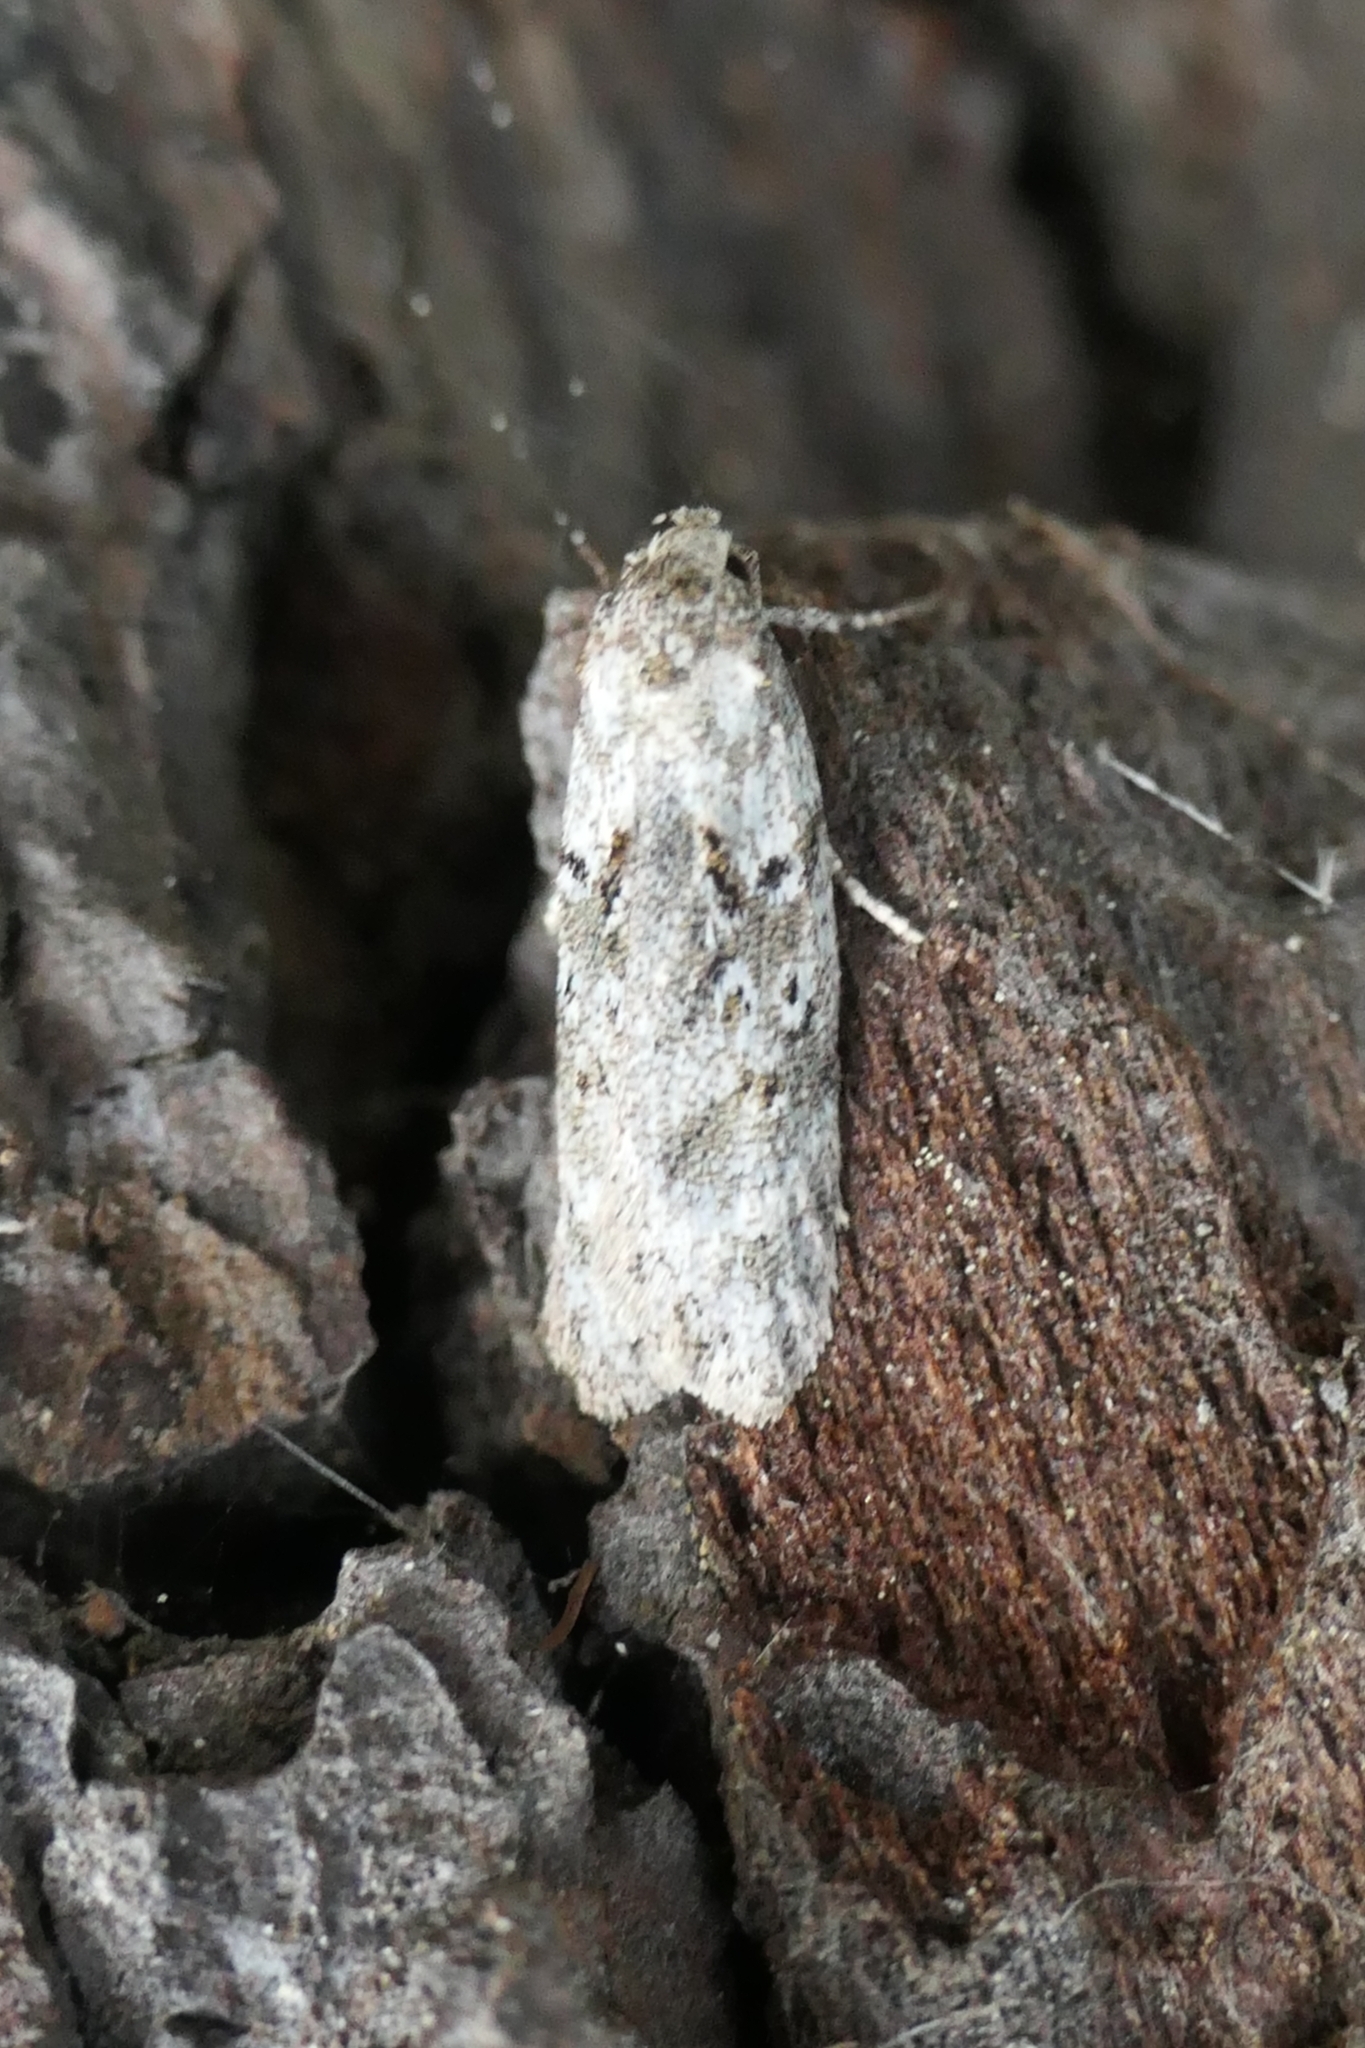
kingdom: Animalia
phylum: Arthropoda
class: Insecta
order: Lepidoptera
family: Oecophoridae
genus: Izatha
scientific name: Izatha convulsella
